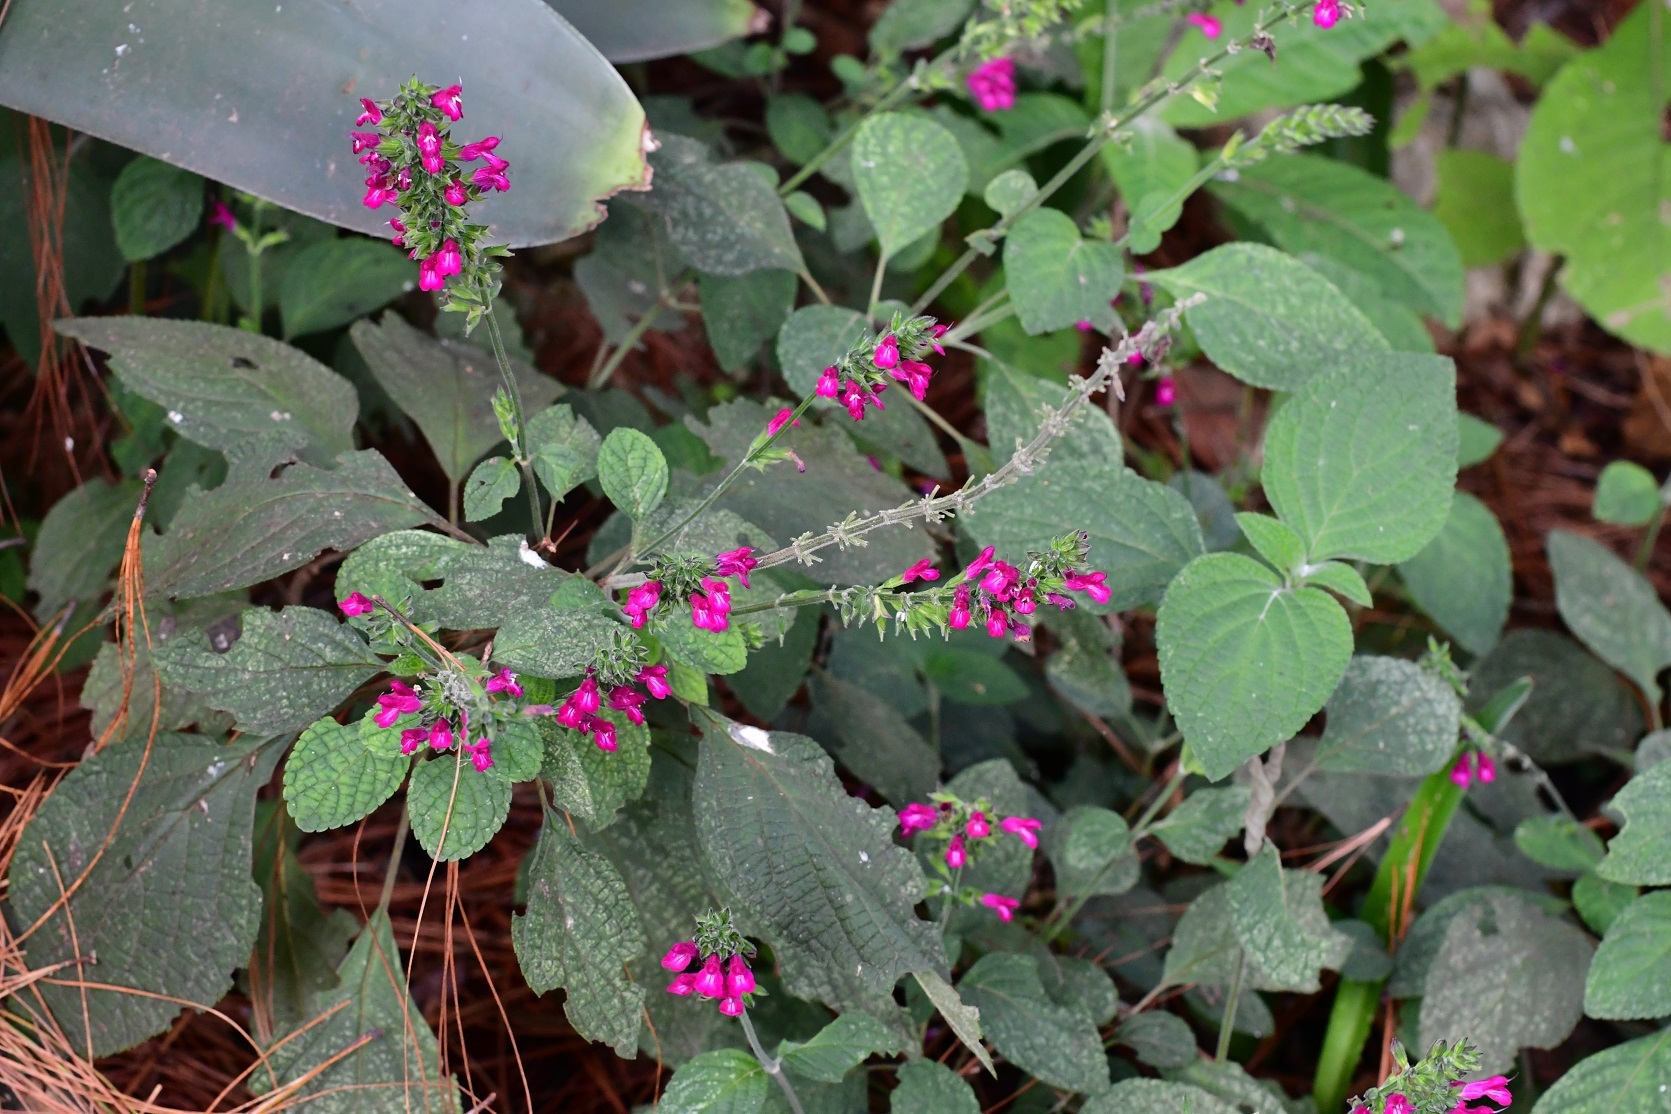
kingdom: Plantae
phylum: Tracheophyta
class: Magnoliopsida
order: Lamiales
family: Lamiaceae
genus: Salvia
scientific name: Salvia chiapensis
